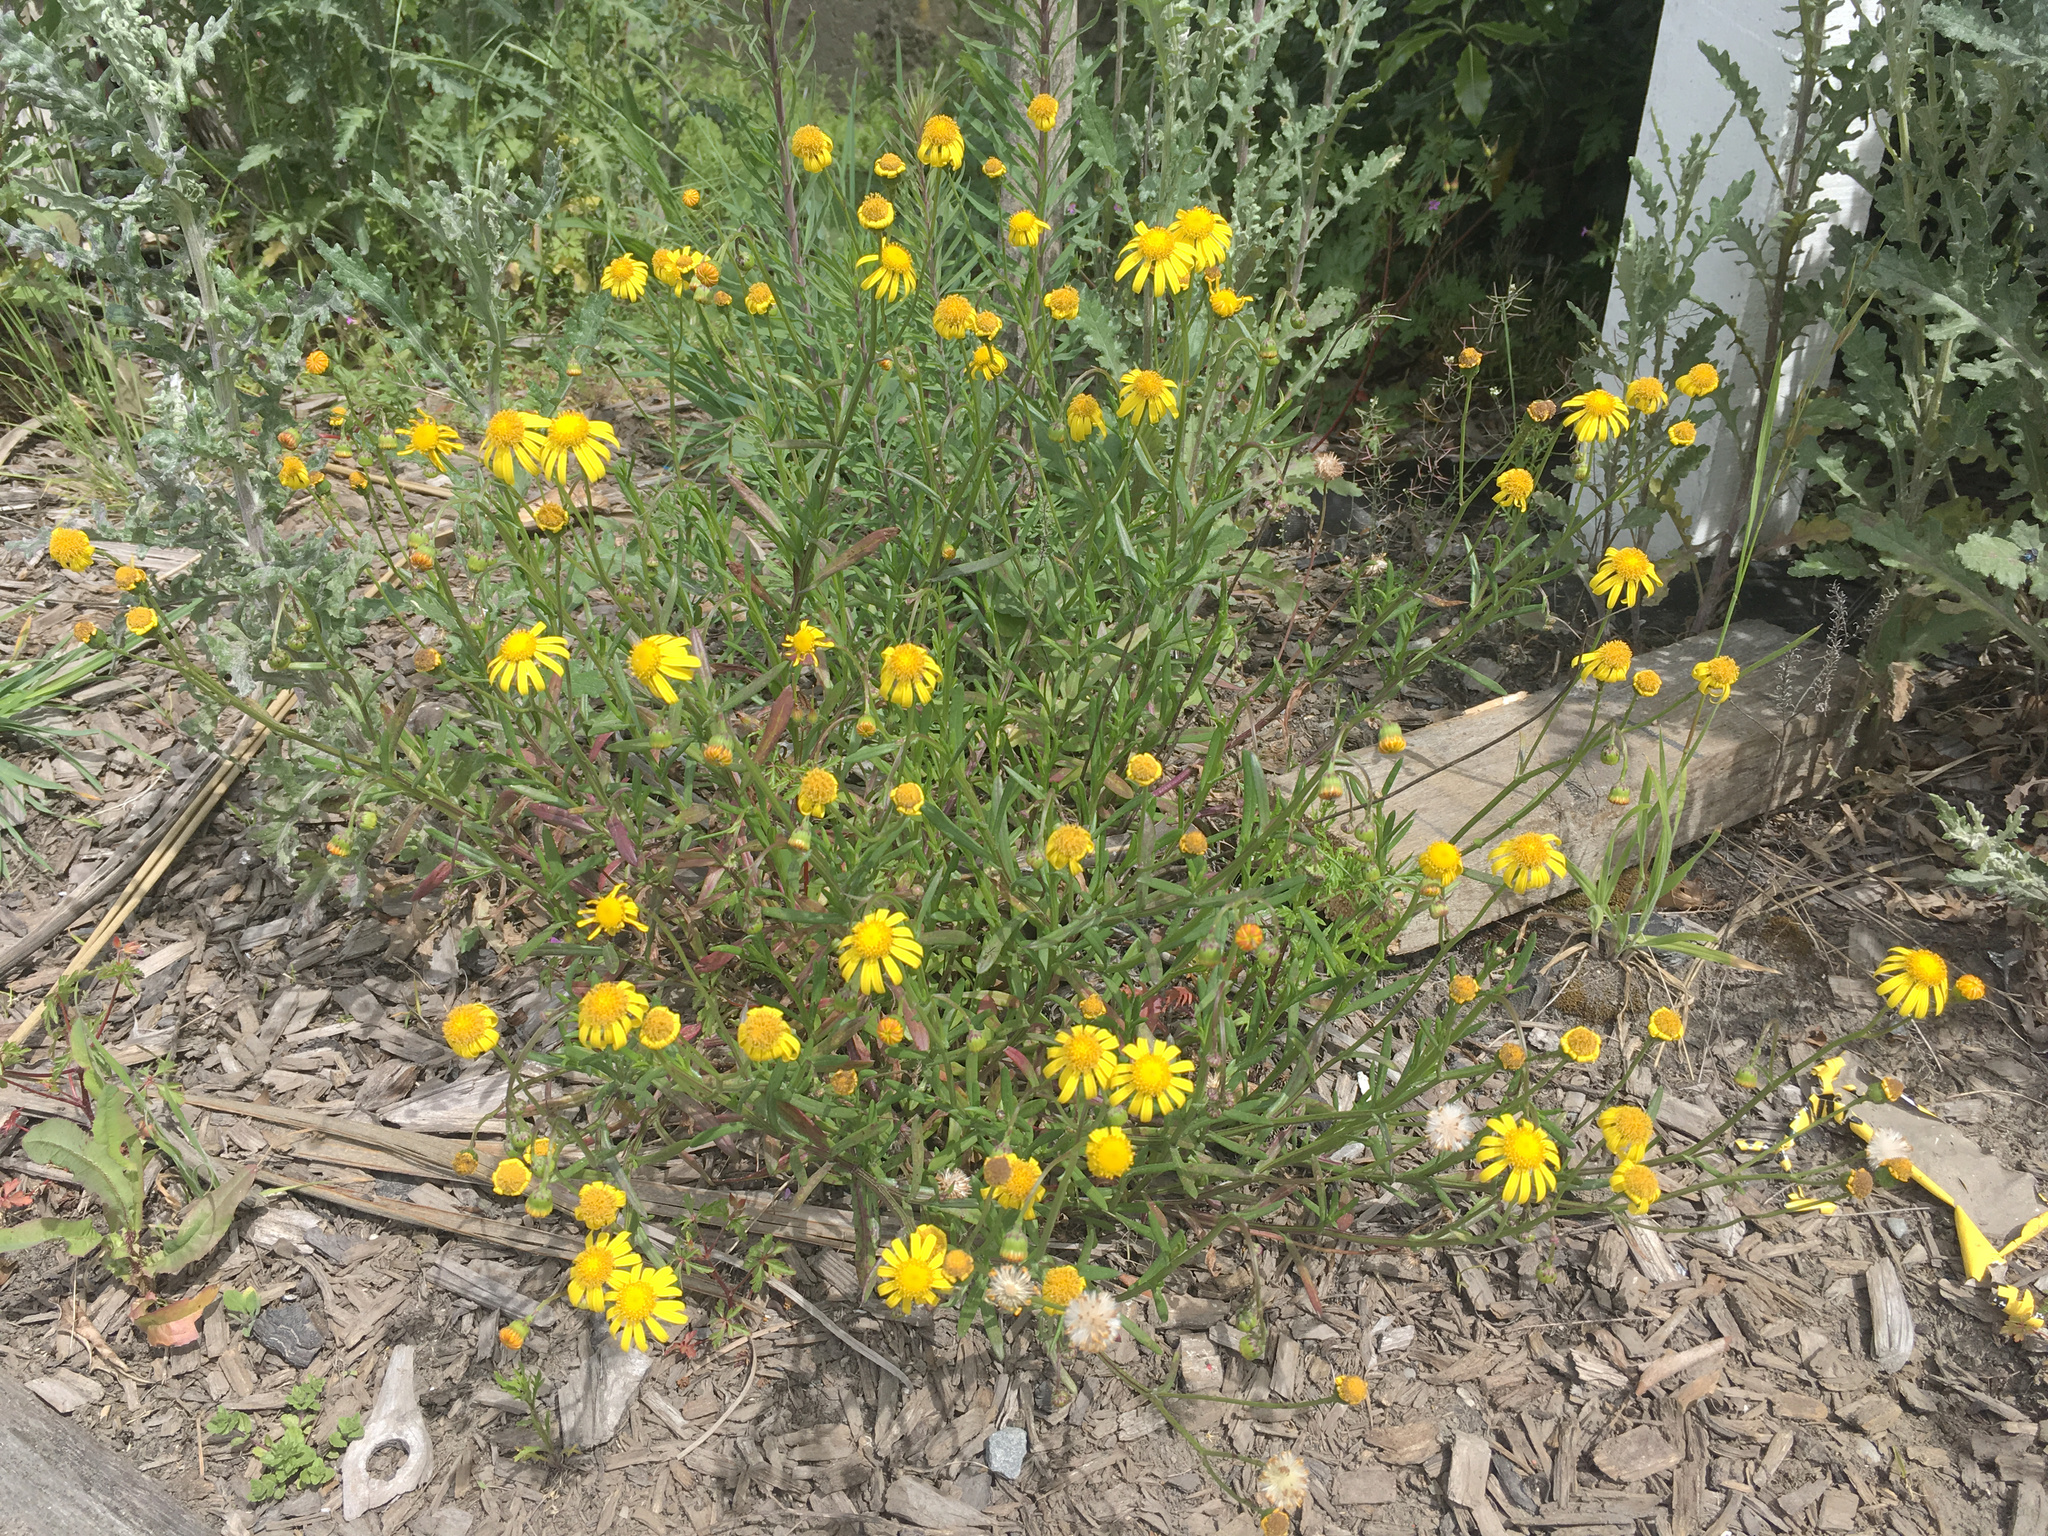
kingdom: Plantae
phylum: Tracheophyta
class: Magnoliopsida
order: Asterales
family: Asteraceae
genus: Senecio
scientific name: Senecio skirrhodon
